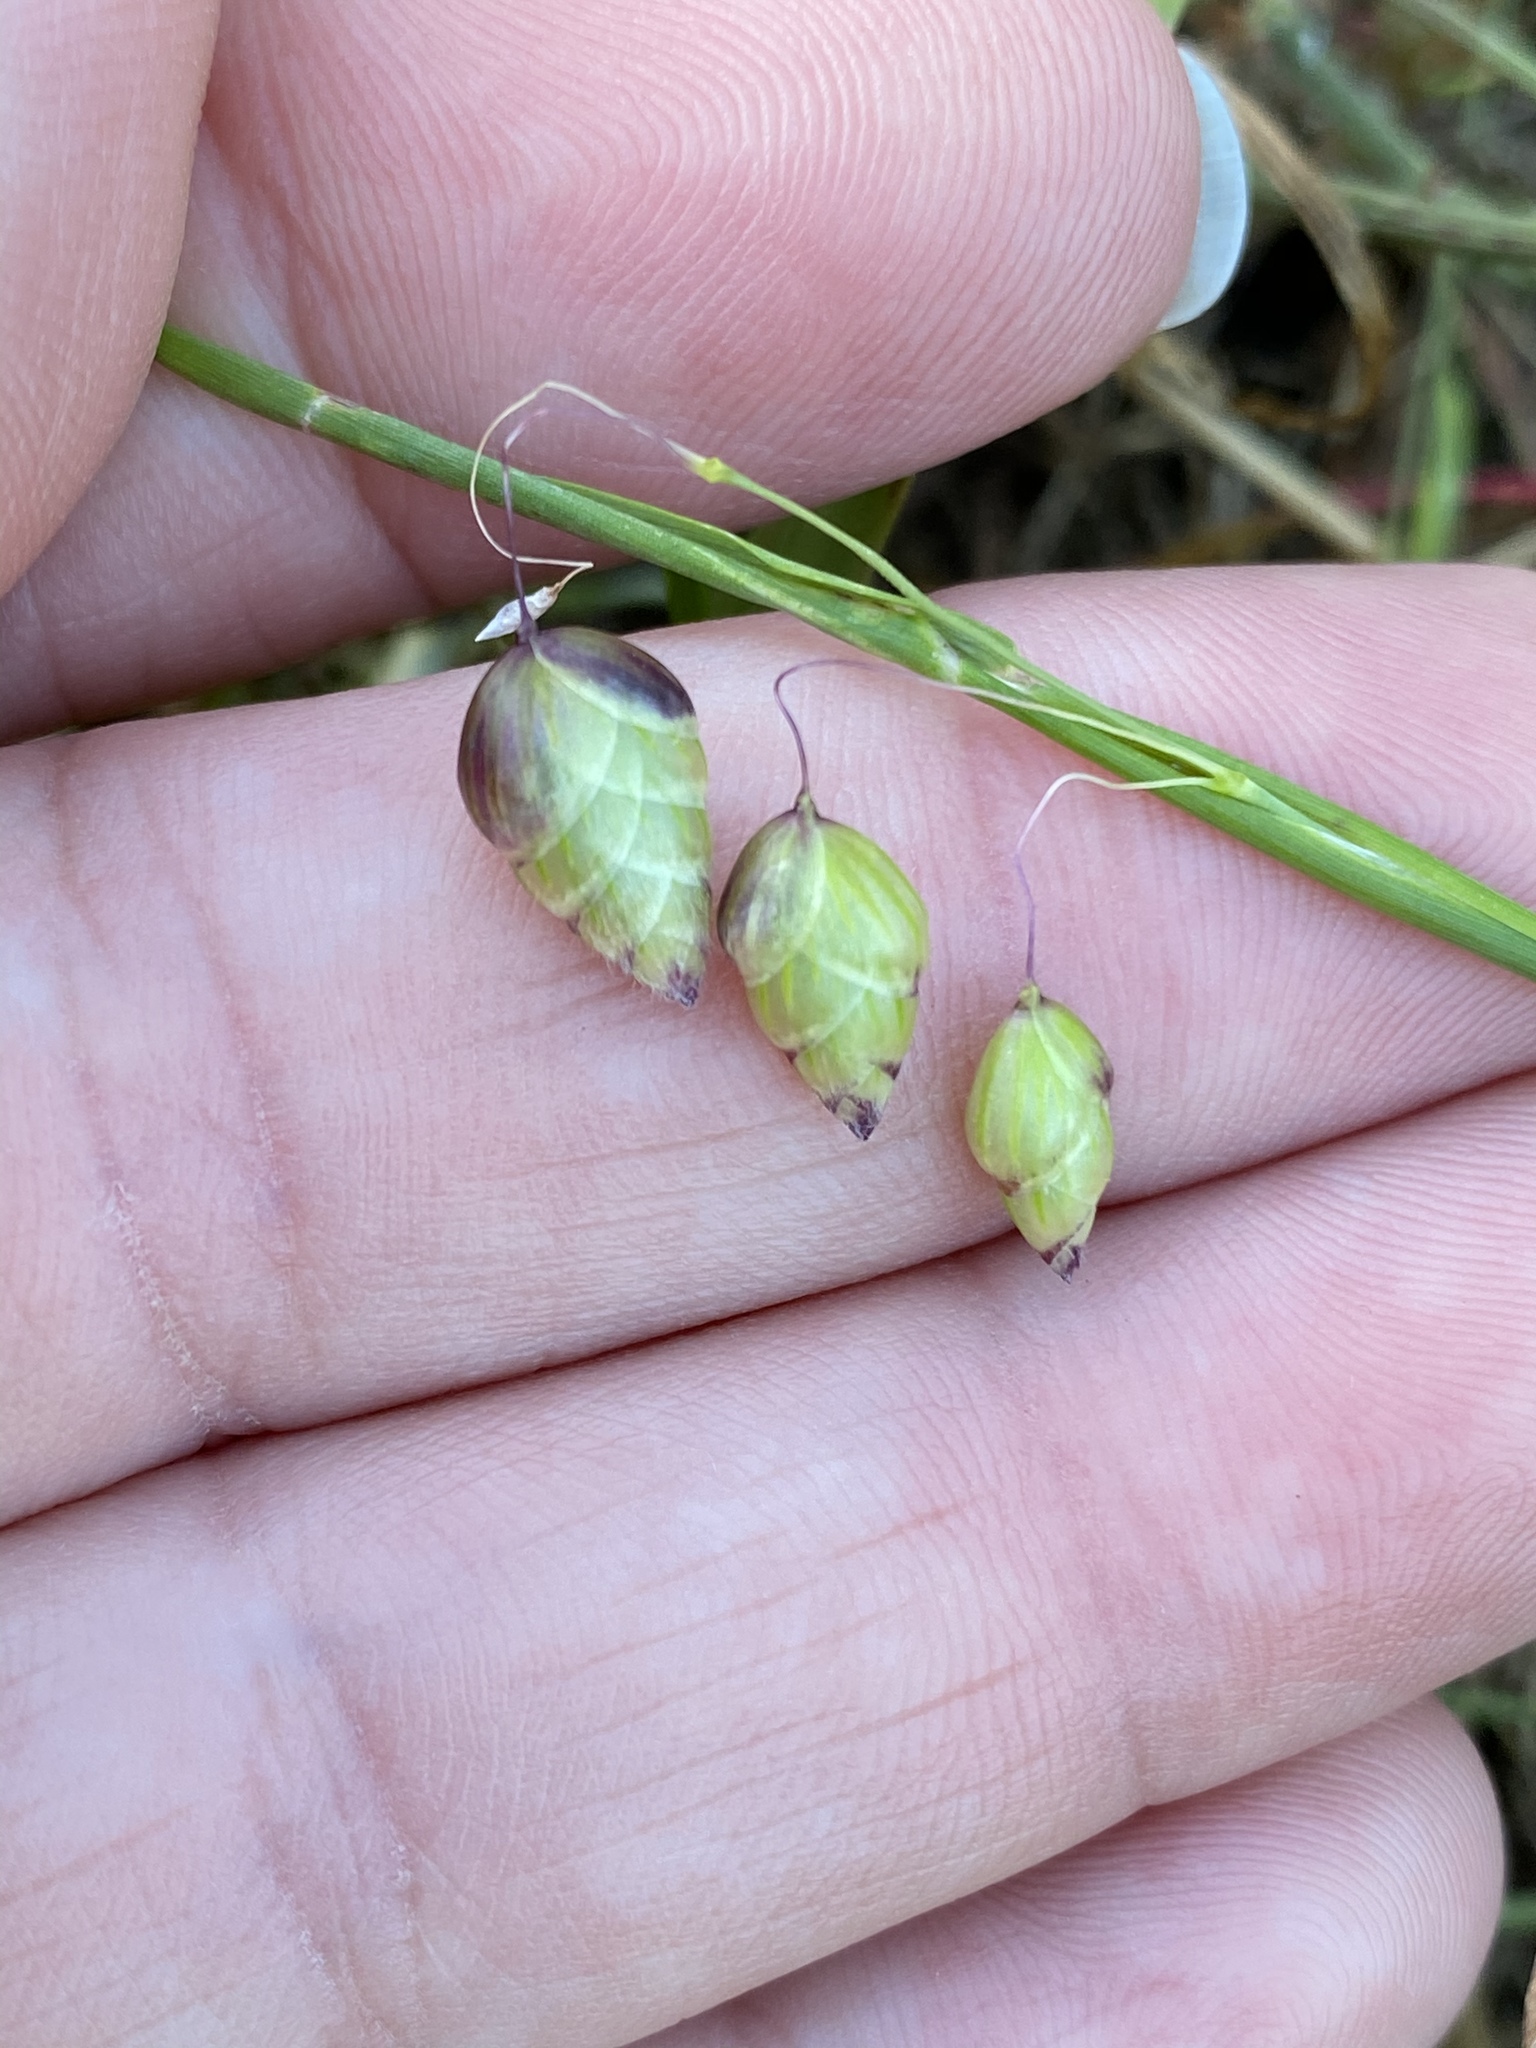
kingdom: Plantae
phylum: Tracheophyta
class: Liliopsida
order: Poales
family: Poaceae
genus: Briza
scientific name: Briza maxima
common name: Big quakinggrass
